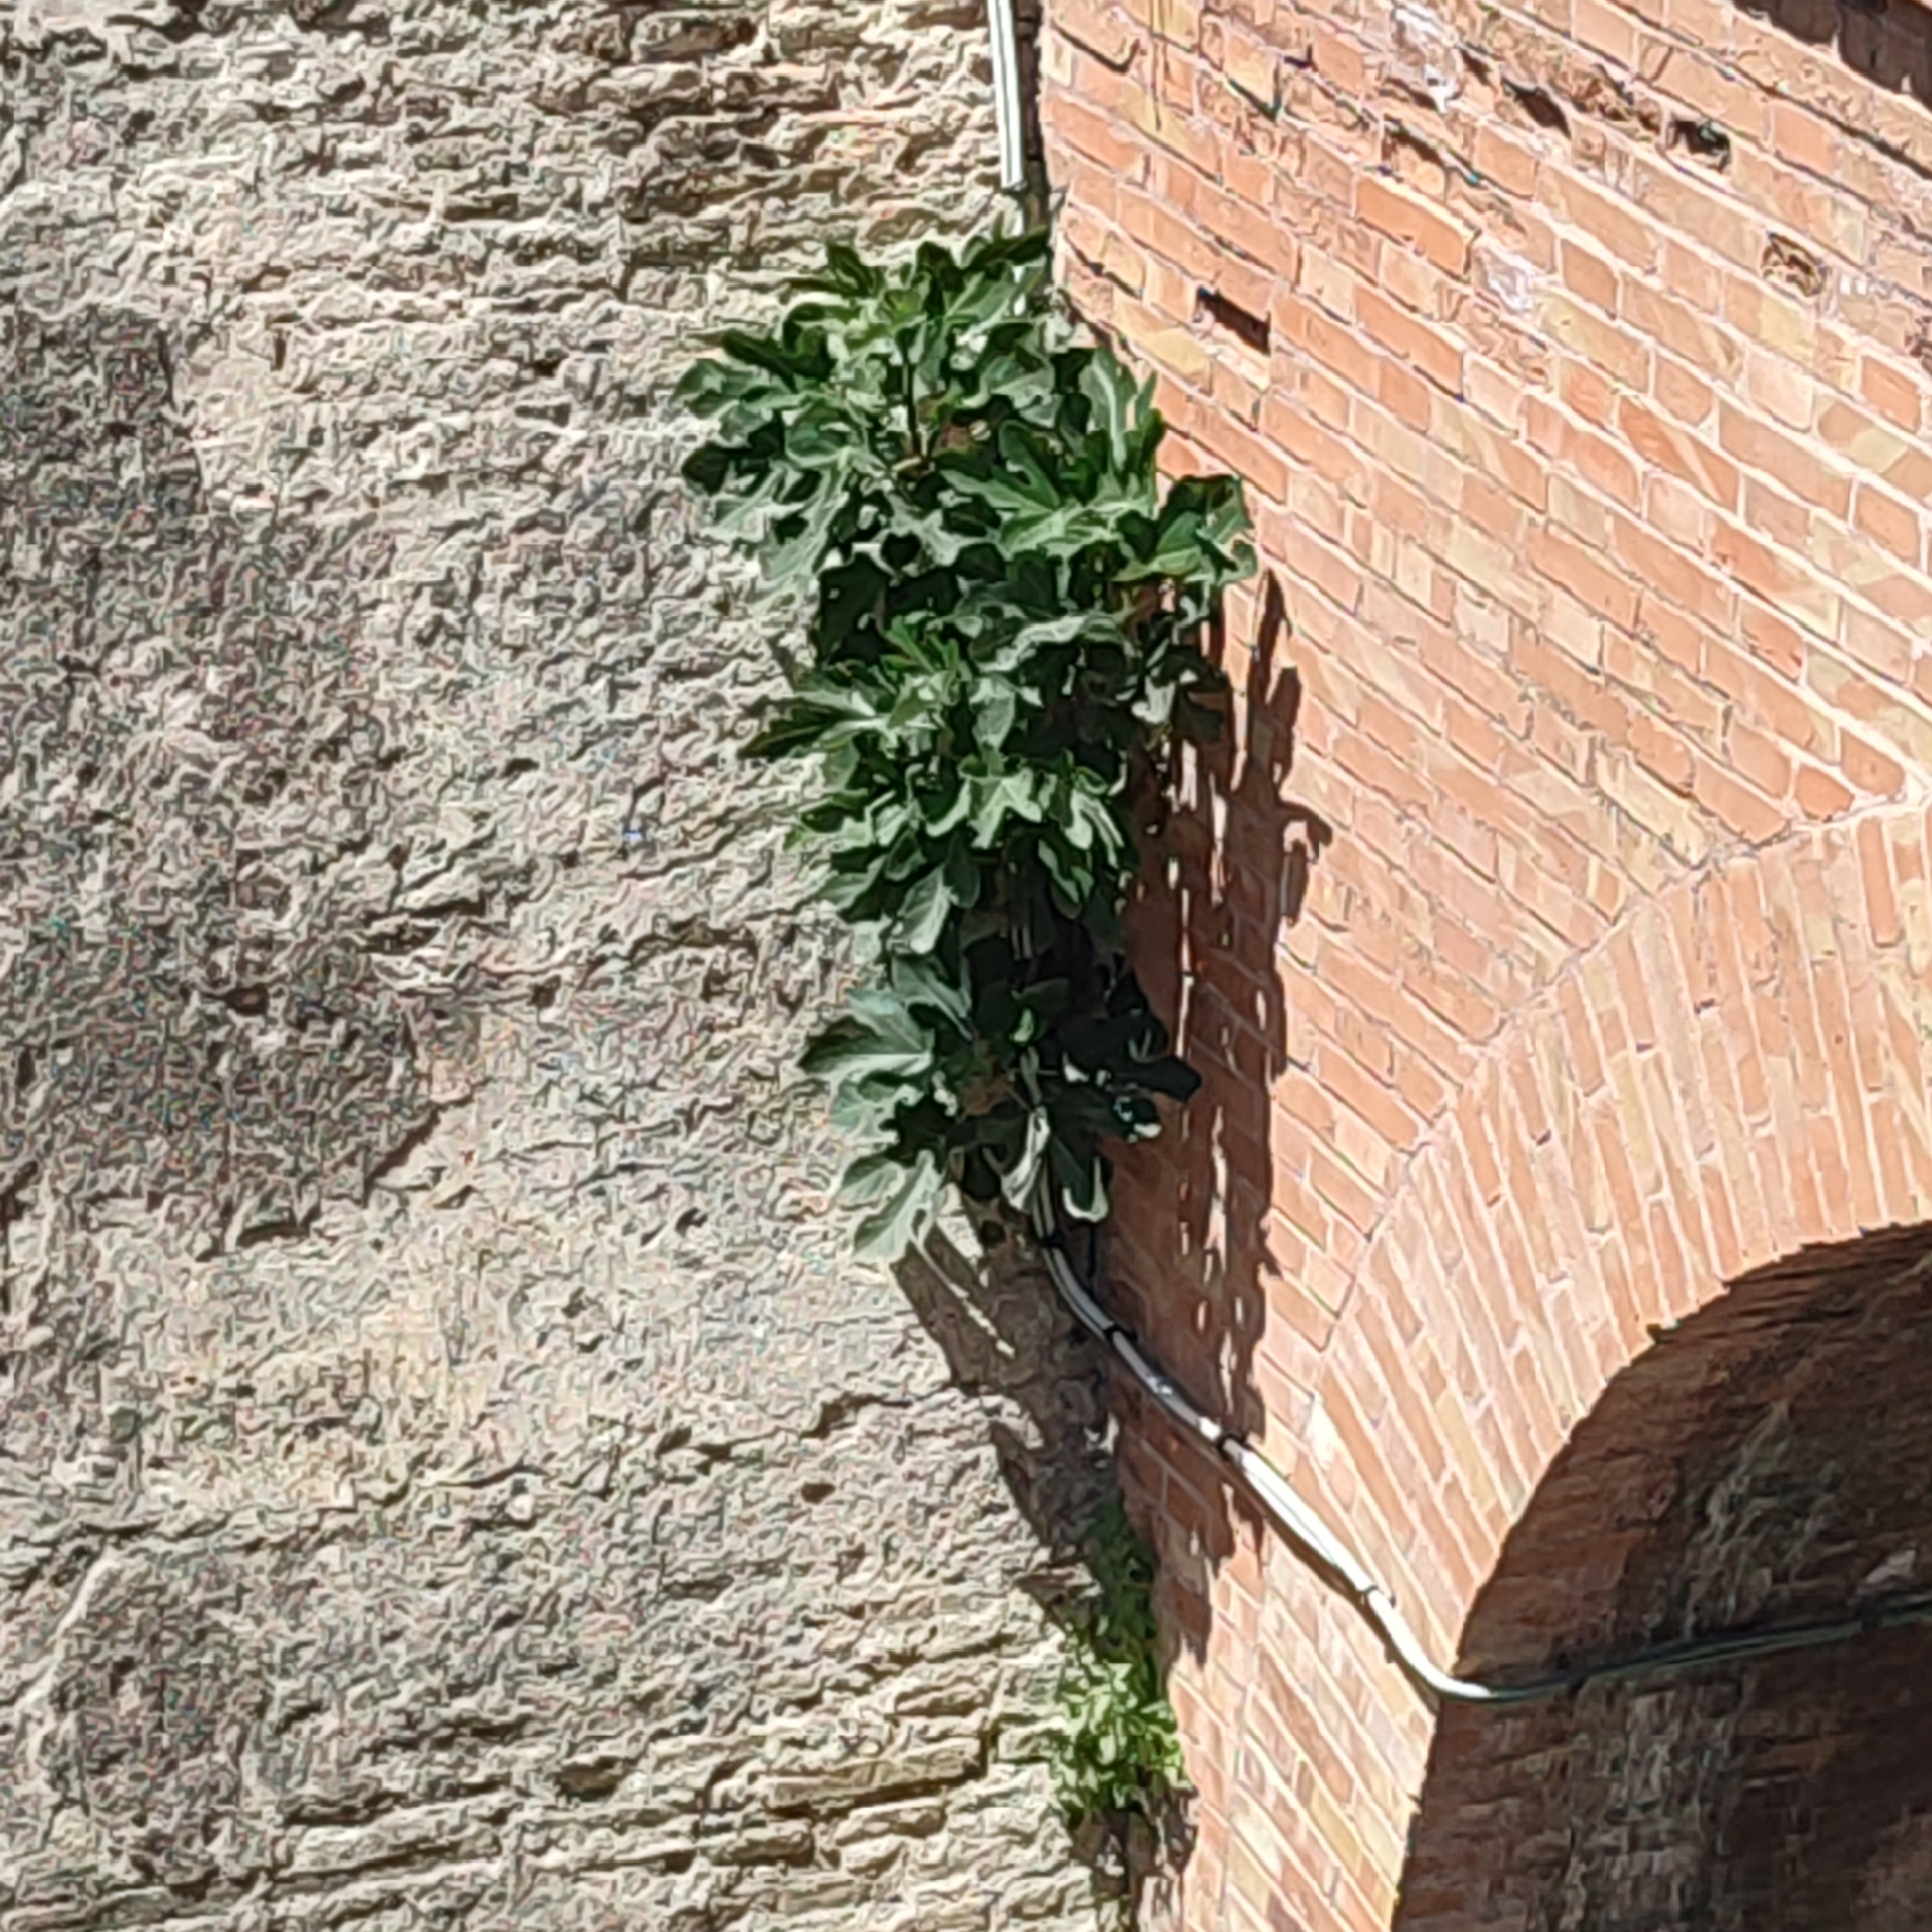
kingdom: Plantae
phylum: Tracheophyta
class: Magnoliopsida
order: Rosales
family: Moraceae
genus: Ficus
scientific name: Ficus carica
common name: Fig
